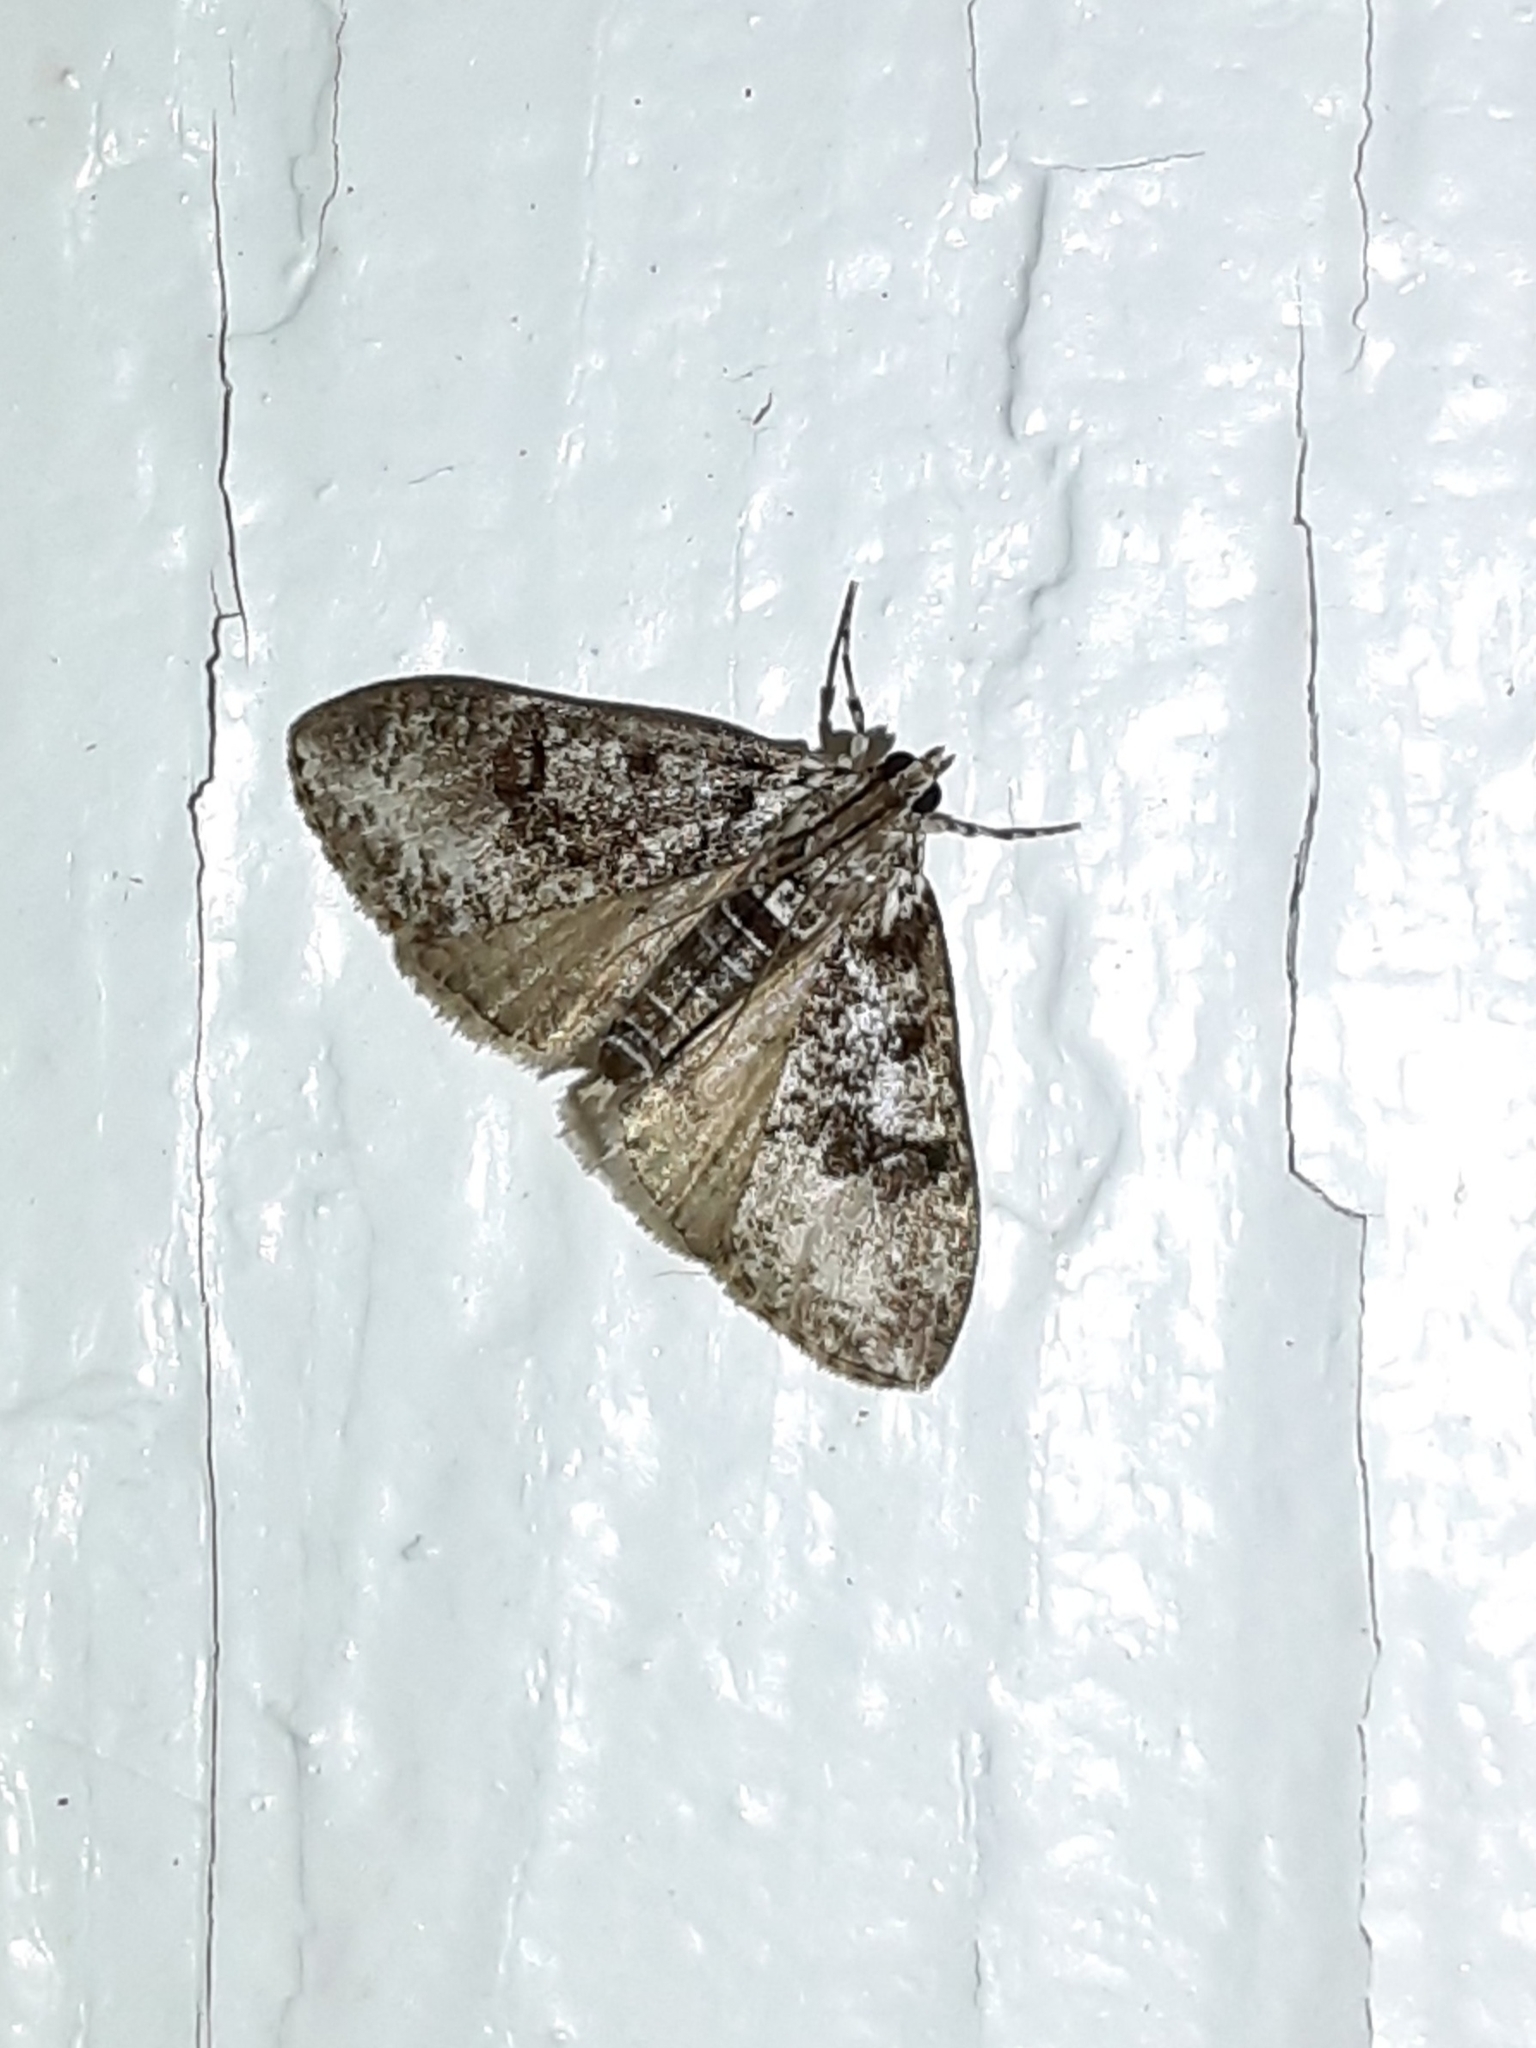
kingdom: Animalia
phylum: Arthropoda
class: Insecta
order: Lepidoptera
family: Crambidae
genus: Palpita
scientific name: Palpita magniferalis
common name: Splendid palpita moth
